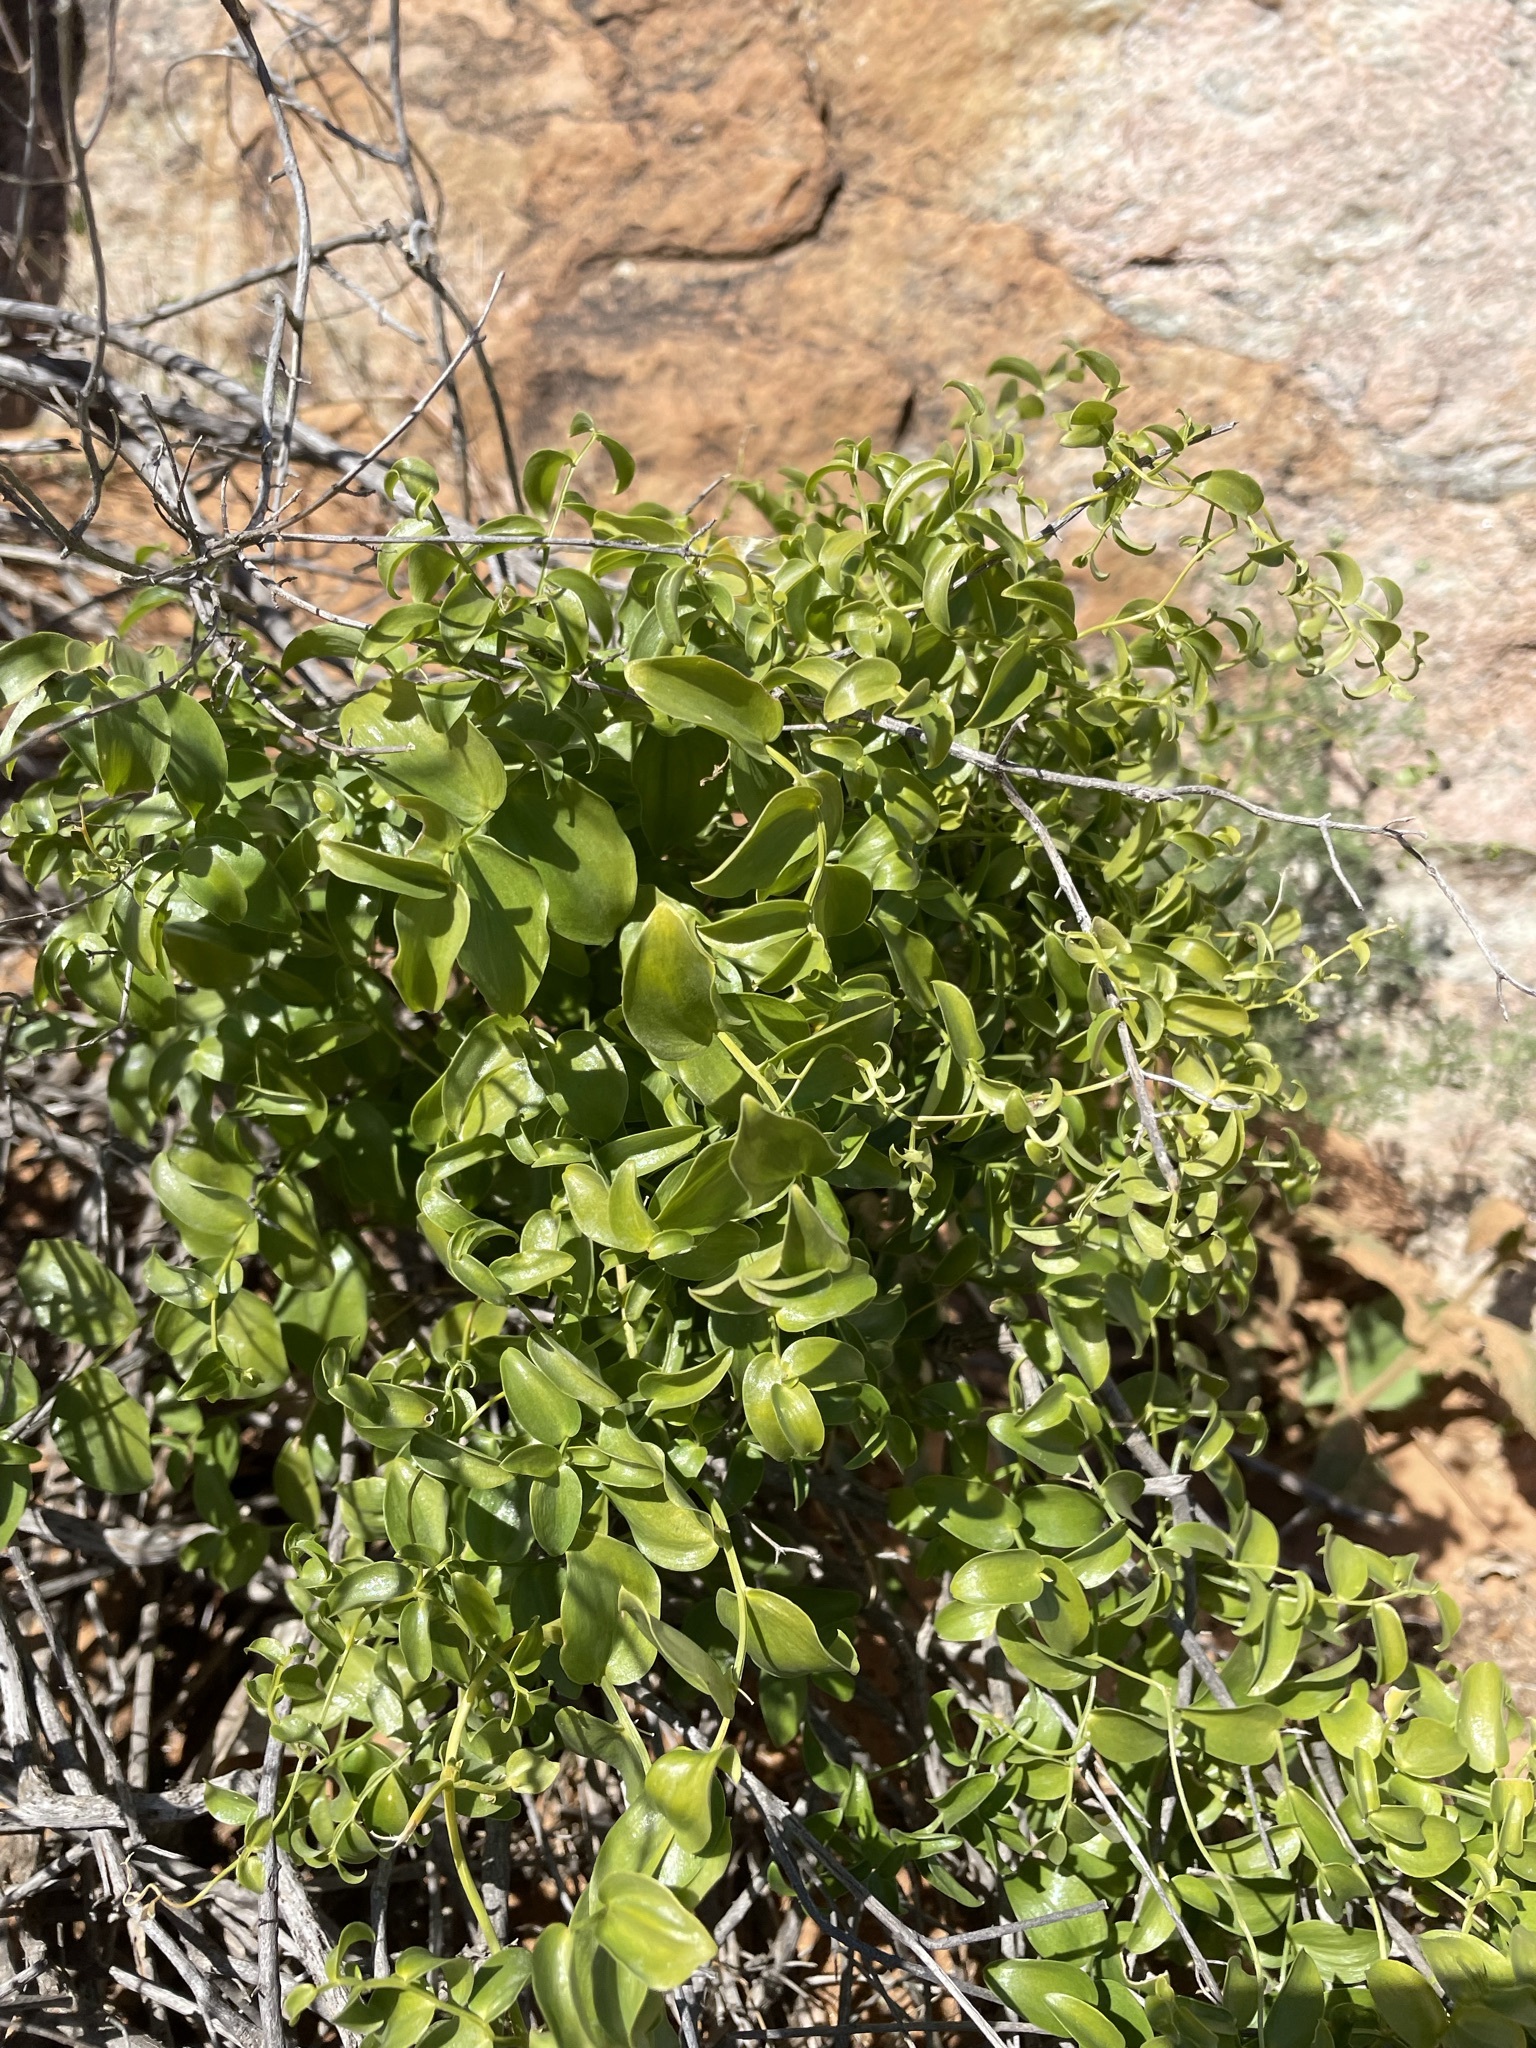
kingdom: Plantae
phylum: Tracheophyta
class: Liliopsida
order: Asparagales
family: Asparagaceae
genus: Asparagus
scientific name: Asparagus asparagoides
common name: African asparagus fern
